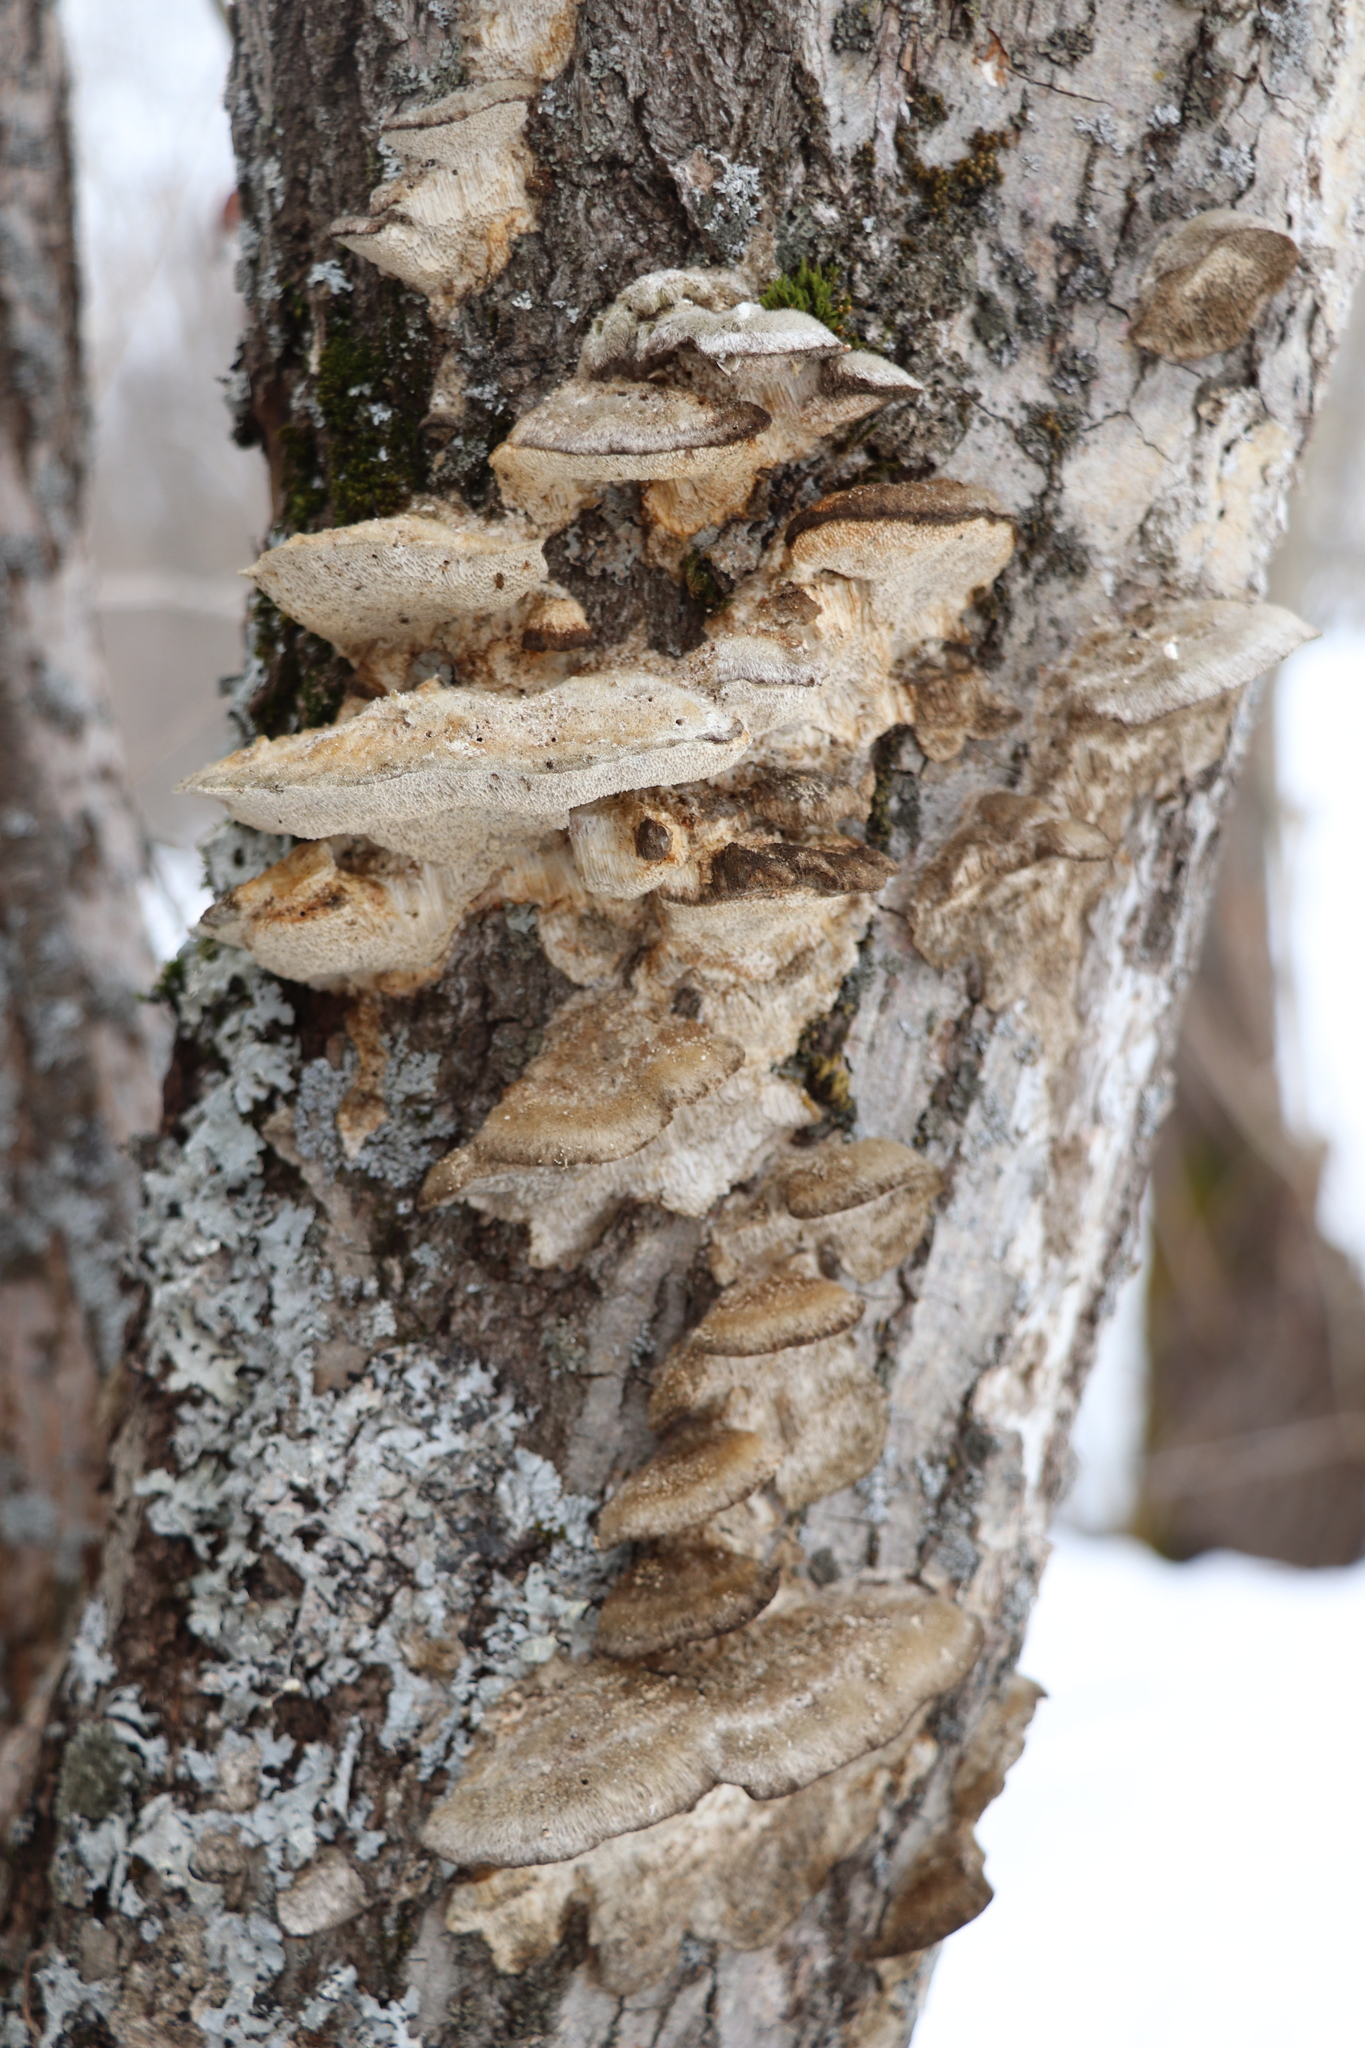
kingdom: Fungi
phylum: Basidiomycota
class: Agaricomycetes
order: Polyporales
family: Polyporaceae
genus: Trametes
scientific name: Trametes trogii
